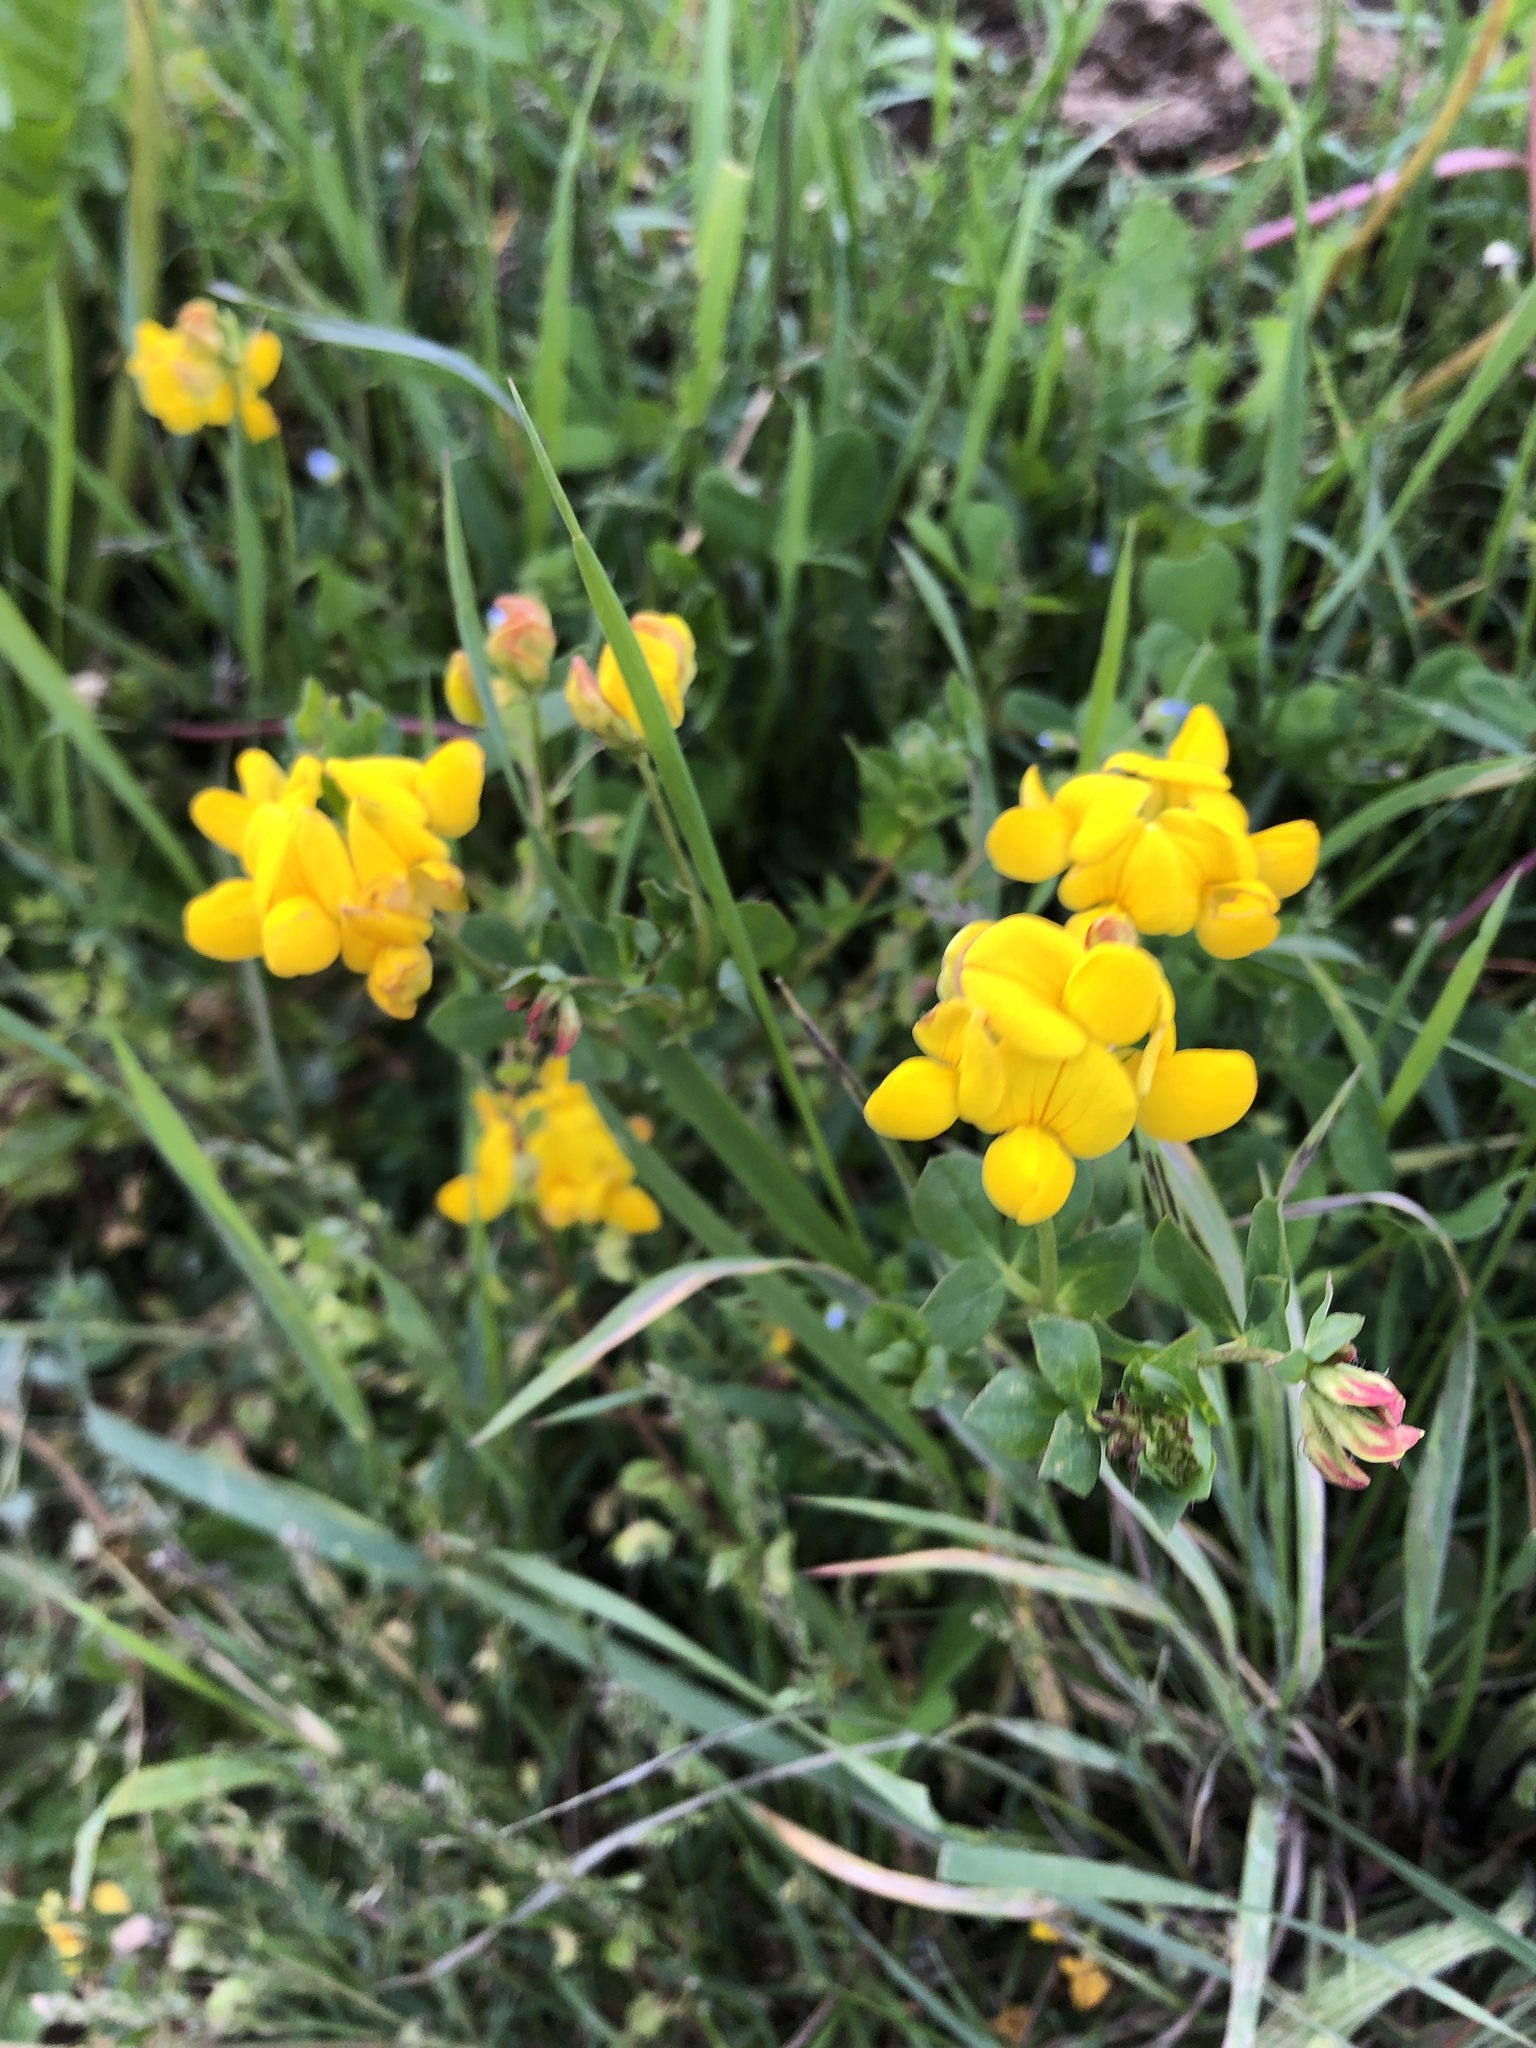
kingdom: Plantae
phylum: Tracheophyta
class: Magnoliopsida
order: Fabales
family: Fabaceae
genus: Lotus
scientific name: Lotus corniculatus
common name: Common bird's-foot-trefoil
